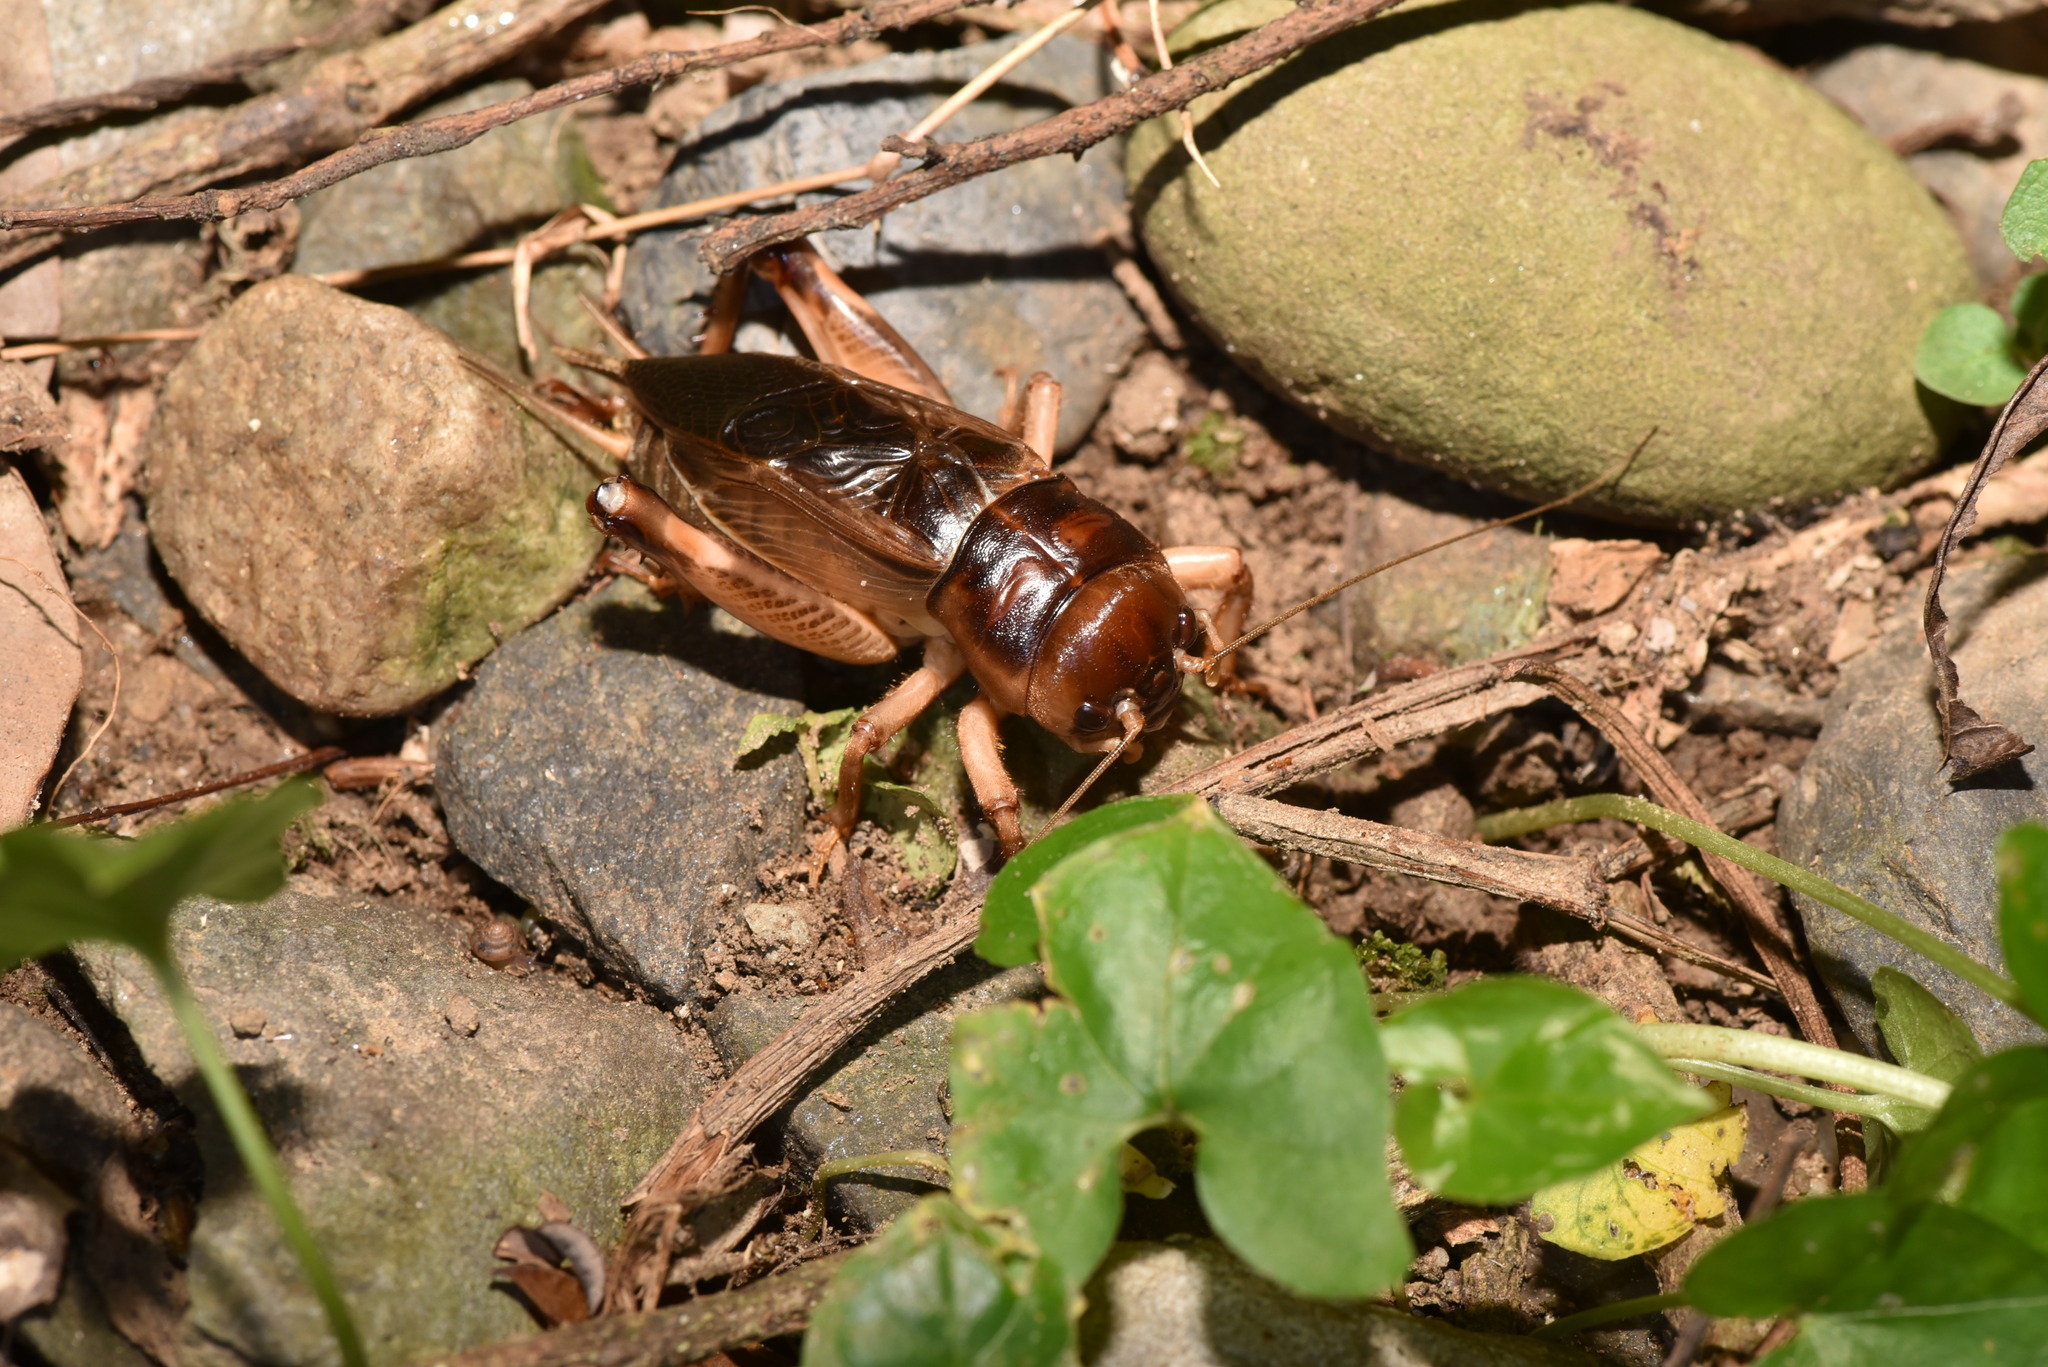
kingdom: Animalia
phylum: Arthropoda
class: Insecta
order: Orthoptera
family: Gryllidae
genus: Tarbinskiellus
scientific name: Tarbinskiellus portentosus
